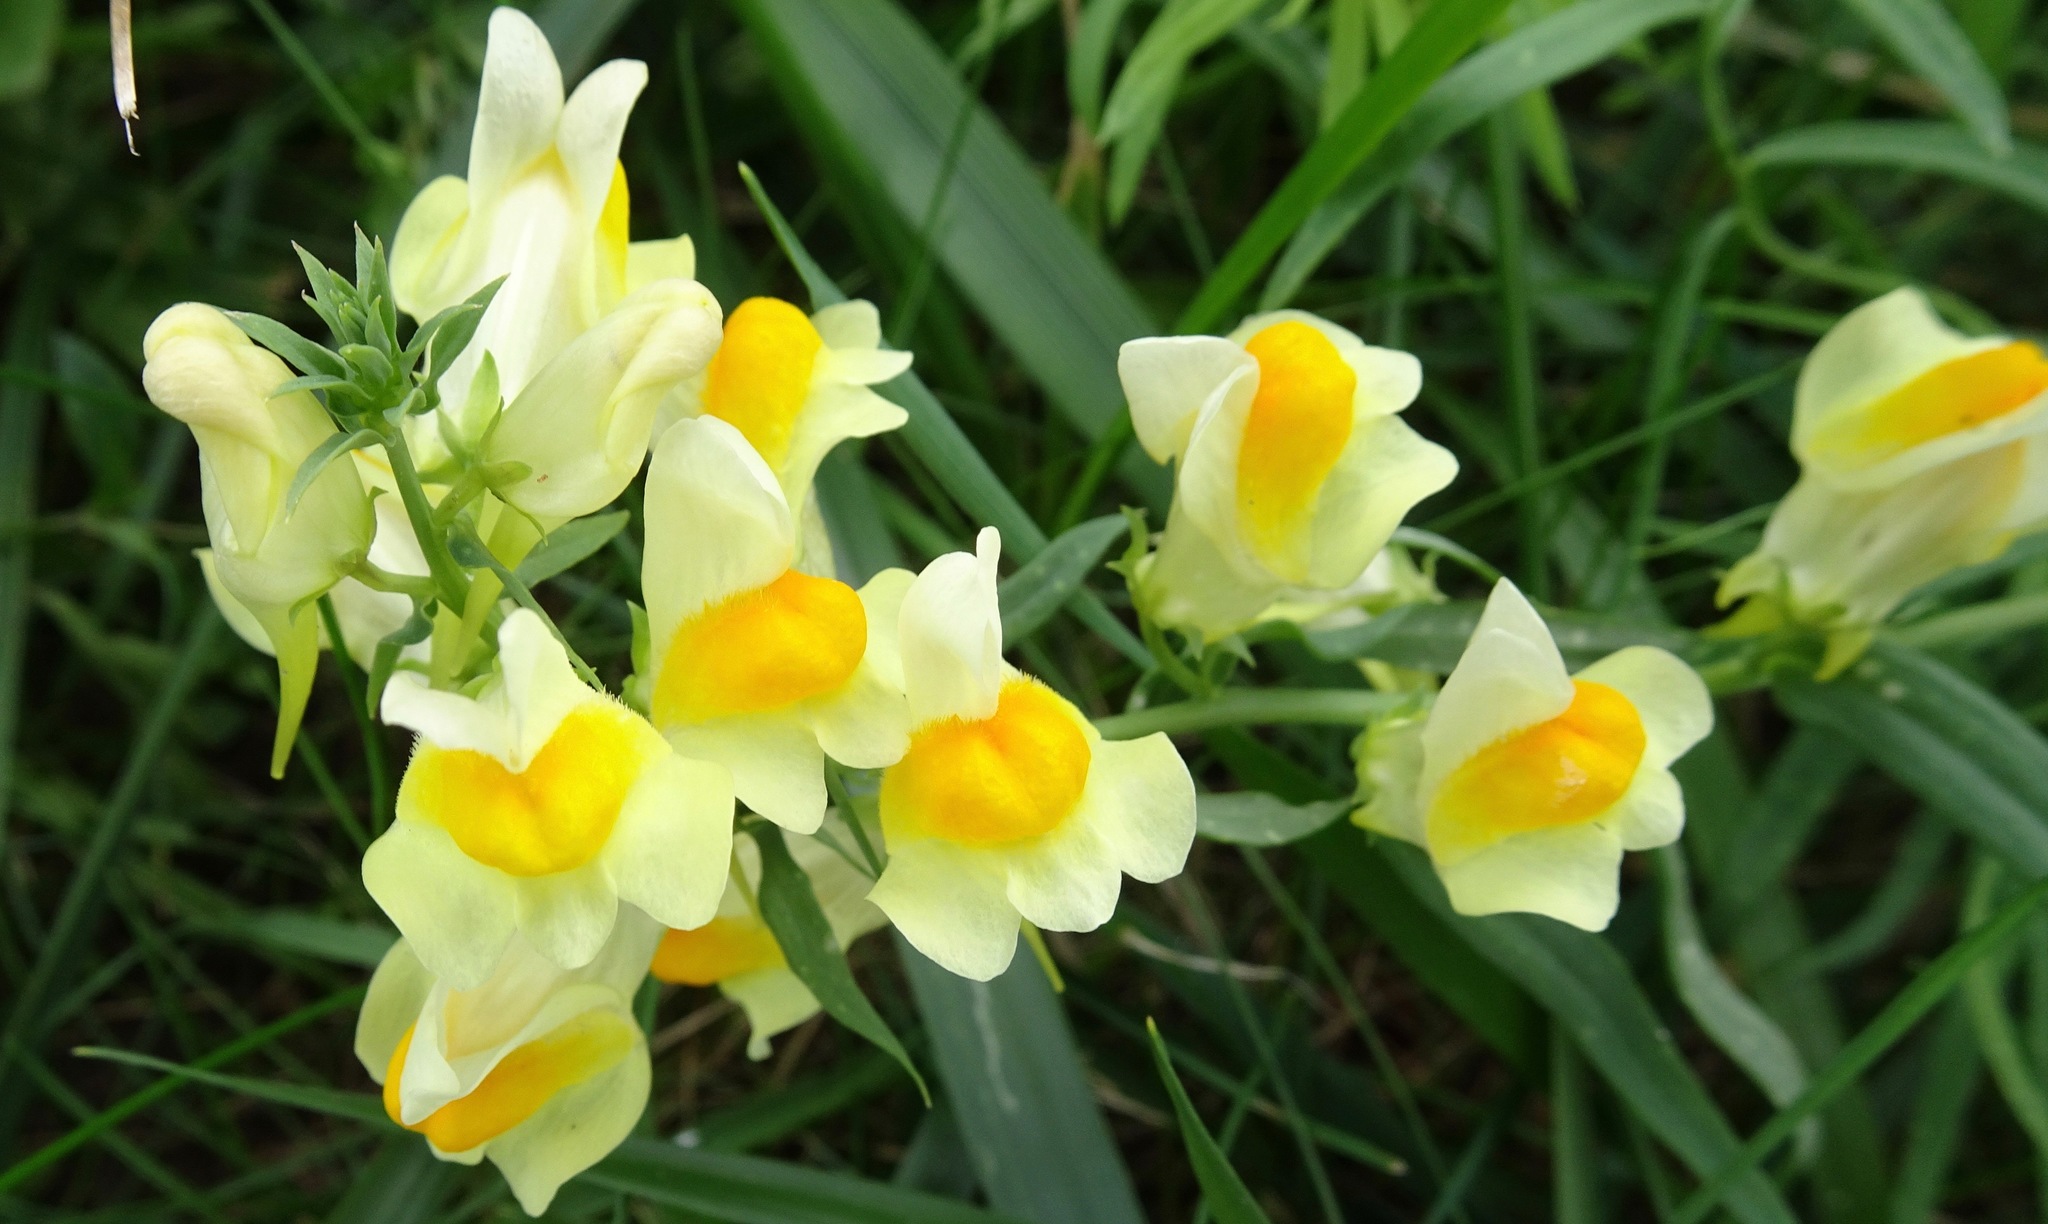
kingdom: Plantae
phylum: Tracheophyta
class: Magnoliopsida
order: Lamiales
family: Plantaginaceae
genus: Linaria
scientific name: Linaria vulgaris
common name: Butter and eggs
